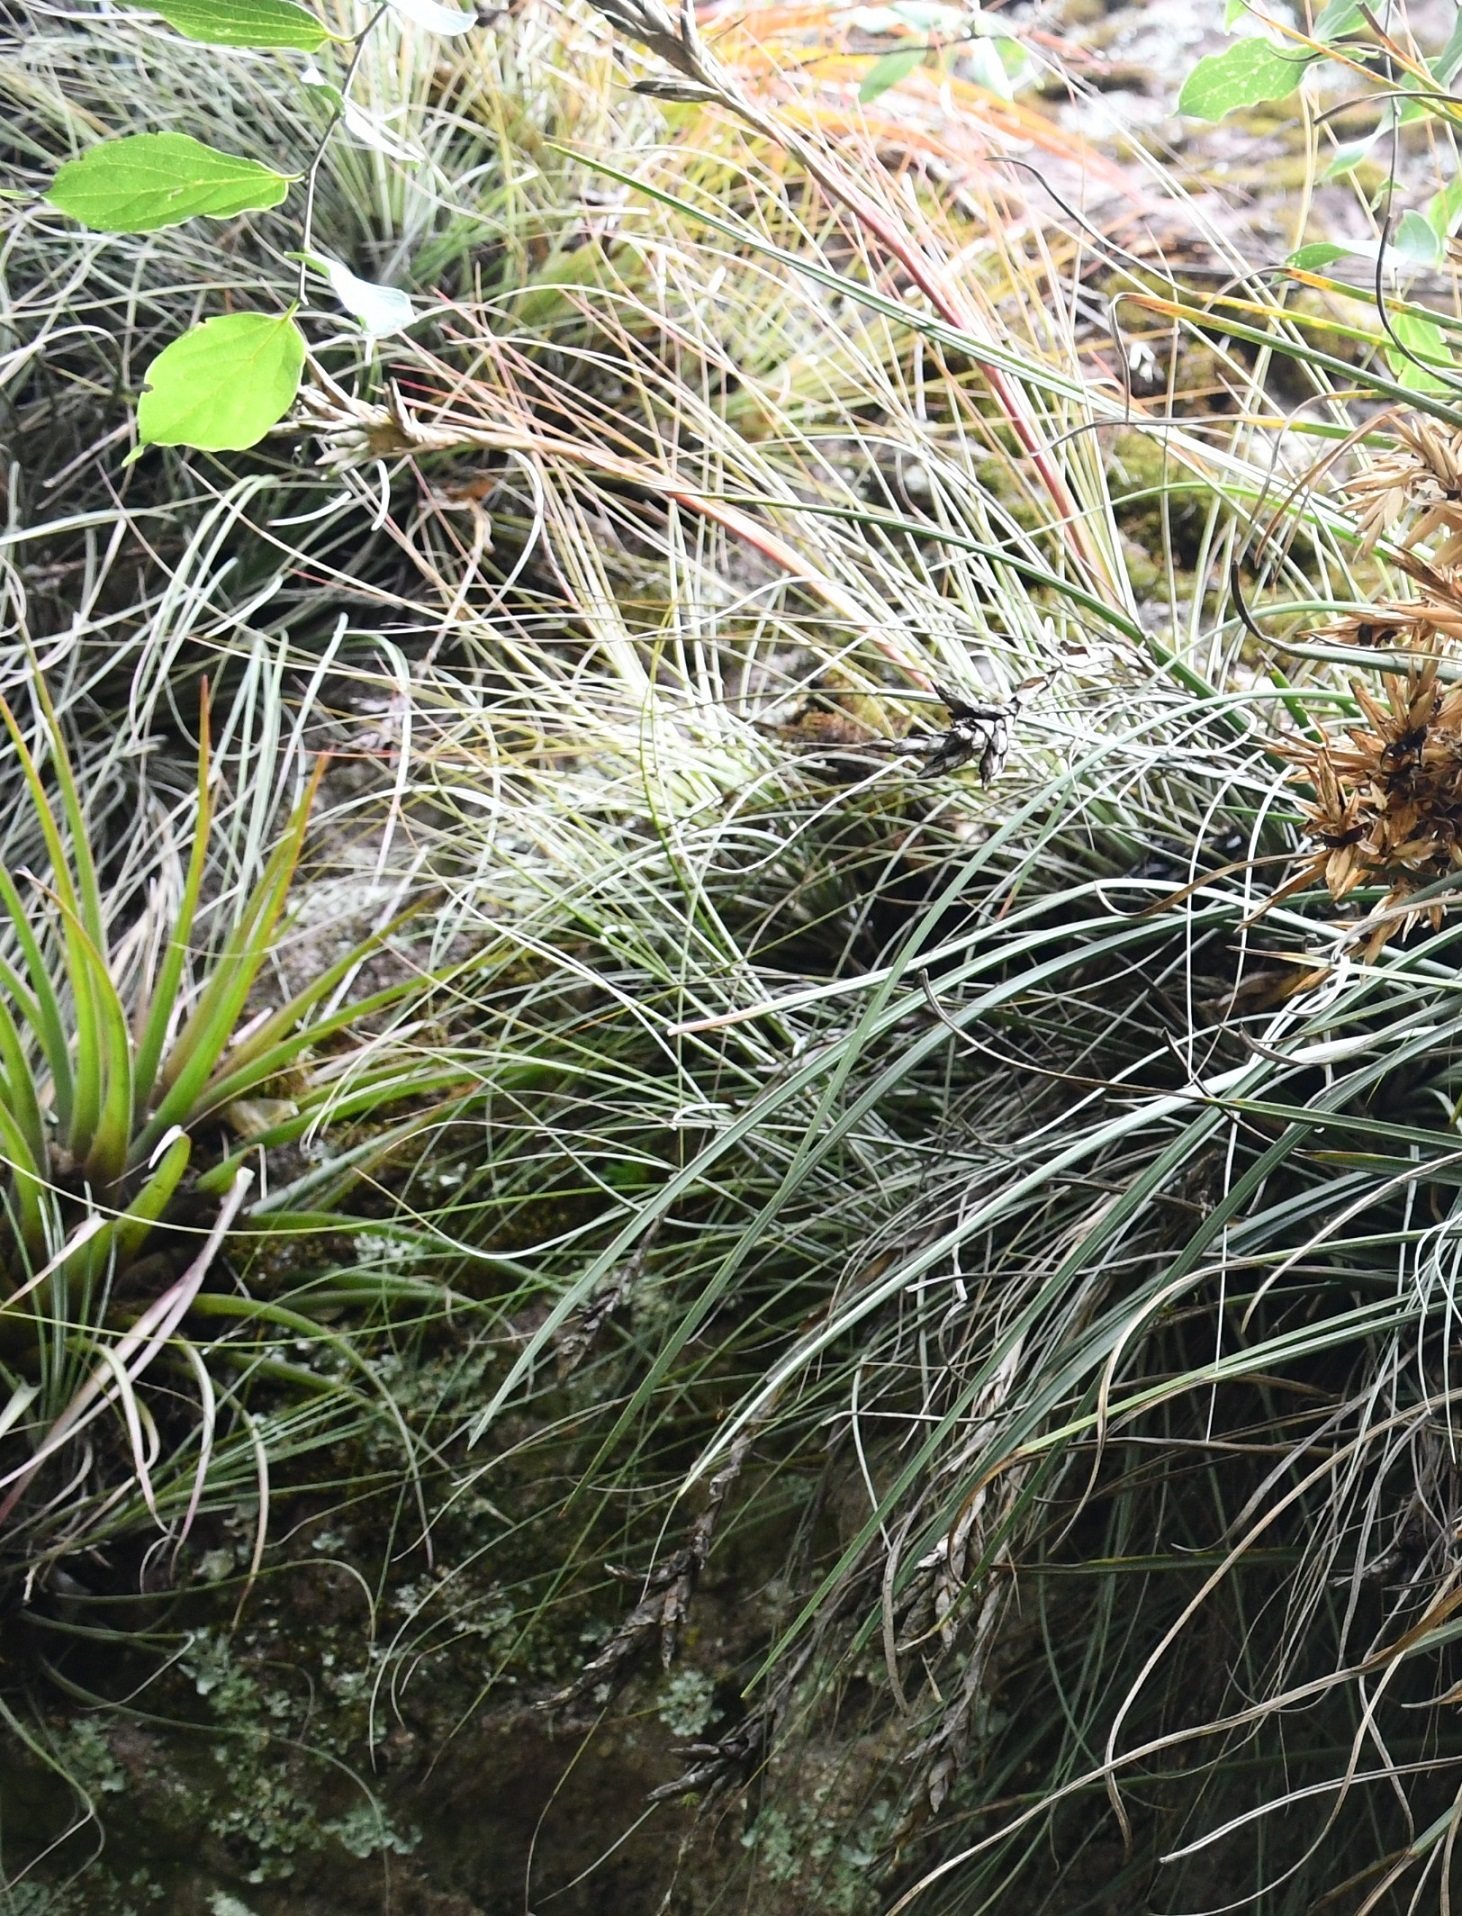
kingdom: Plantae
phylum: Tracheophyta
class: Liliopsida
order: Poales
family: Bromeliaceae
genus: Tillandsia
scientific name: Tillandsia hammeri
